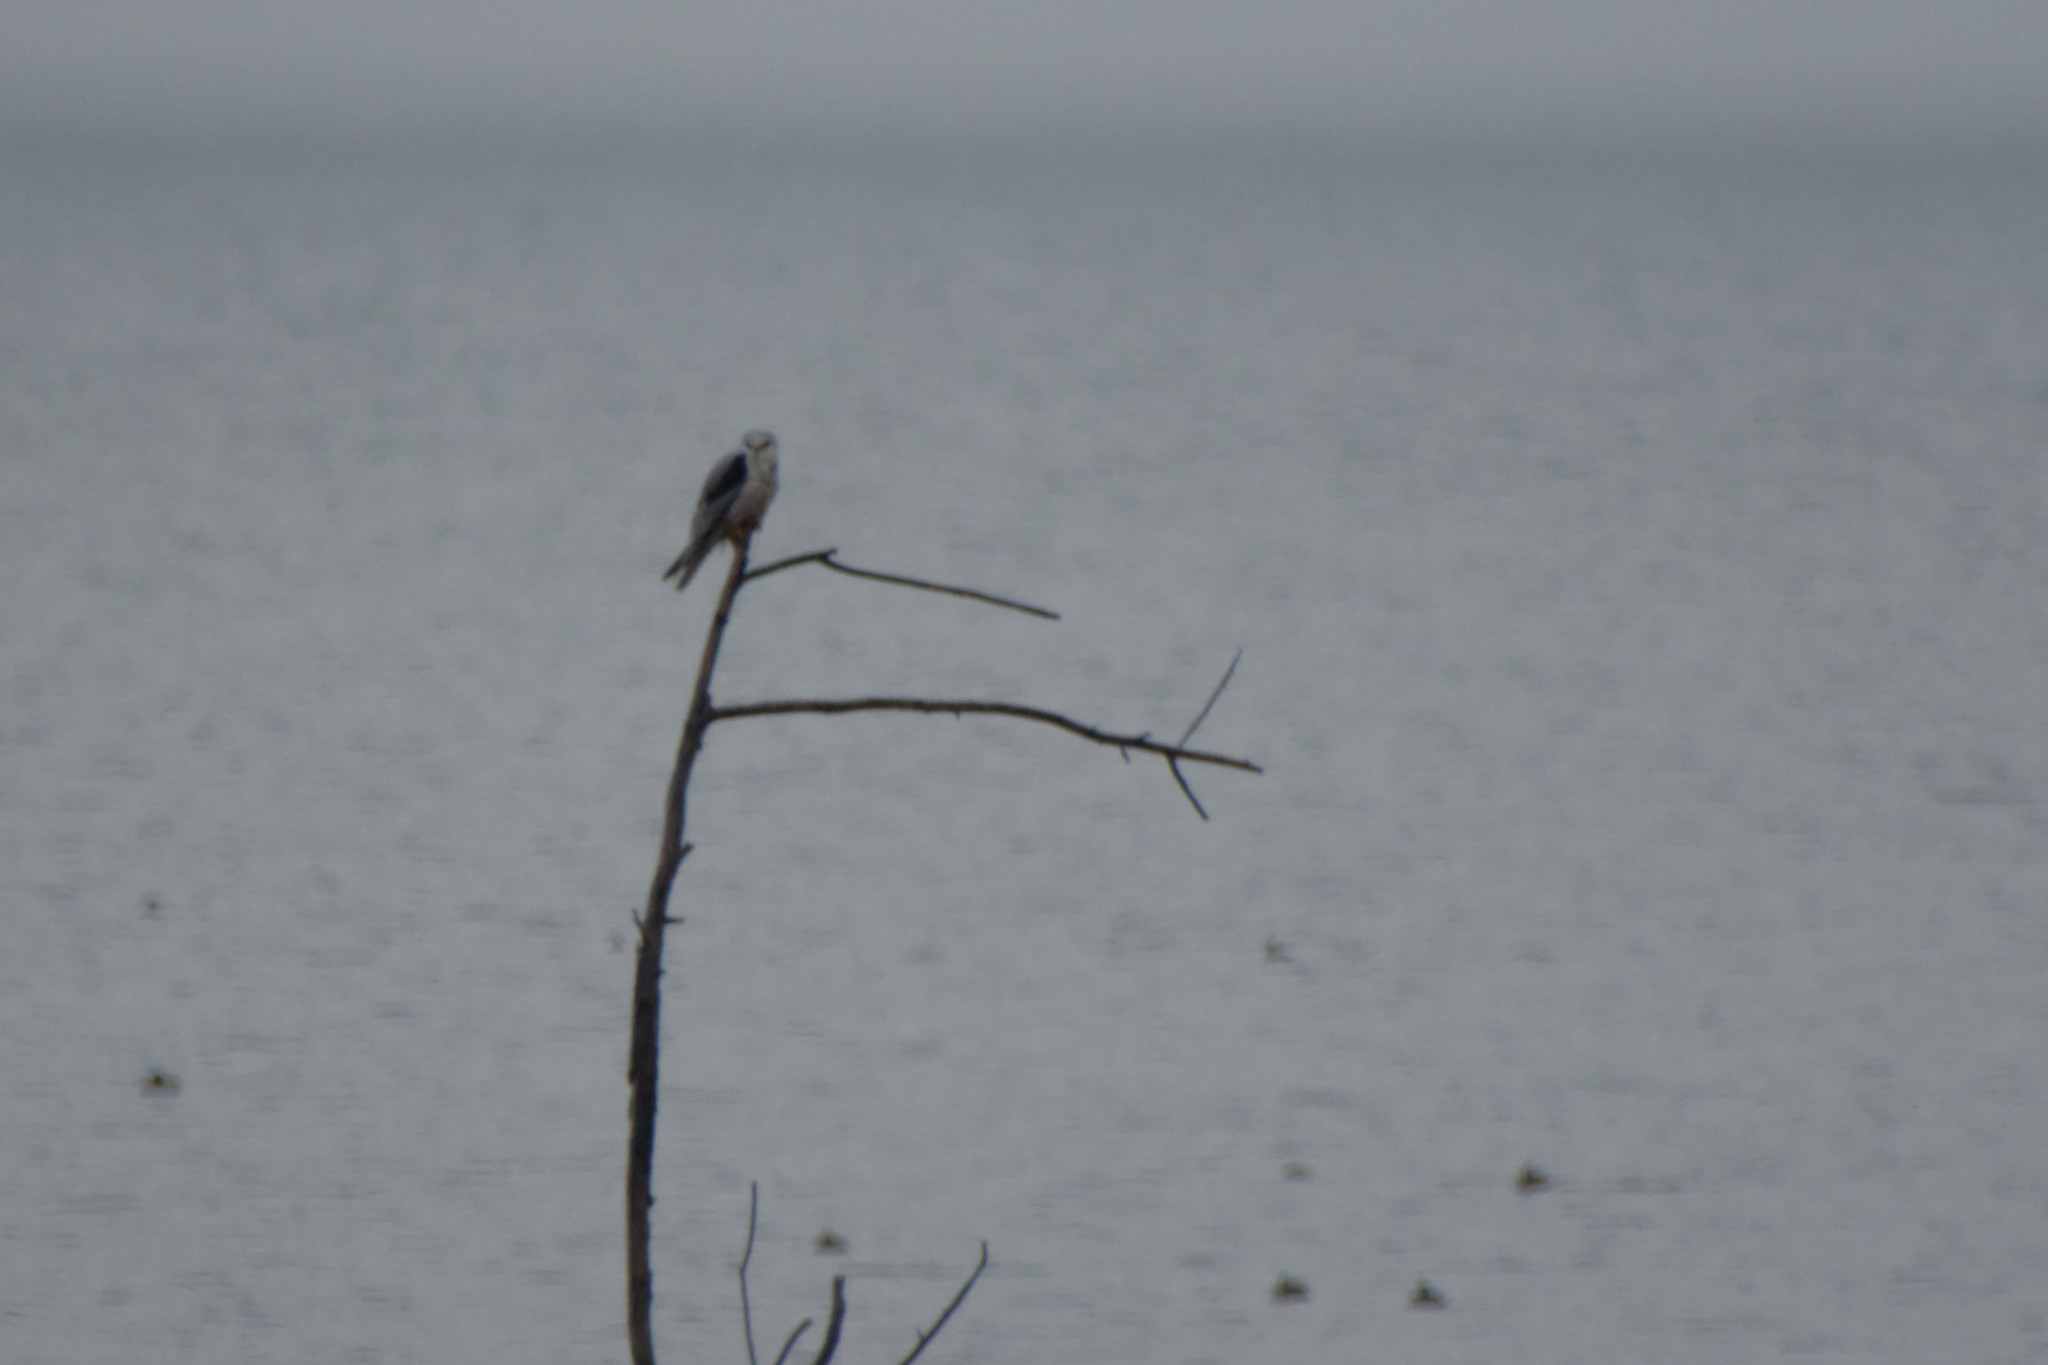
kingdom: Animalia
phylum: Chordata
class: Aves
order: Accipitriformes
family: Accipitridae
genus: Elanus
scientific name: Elanus leucurus
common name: White-tailed kite
